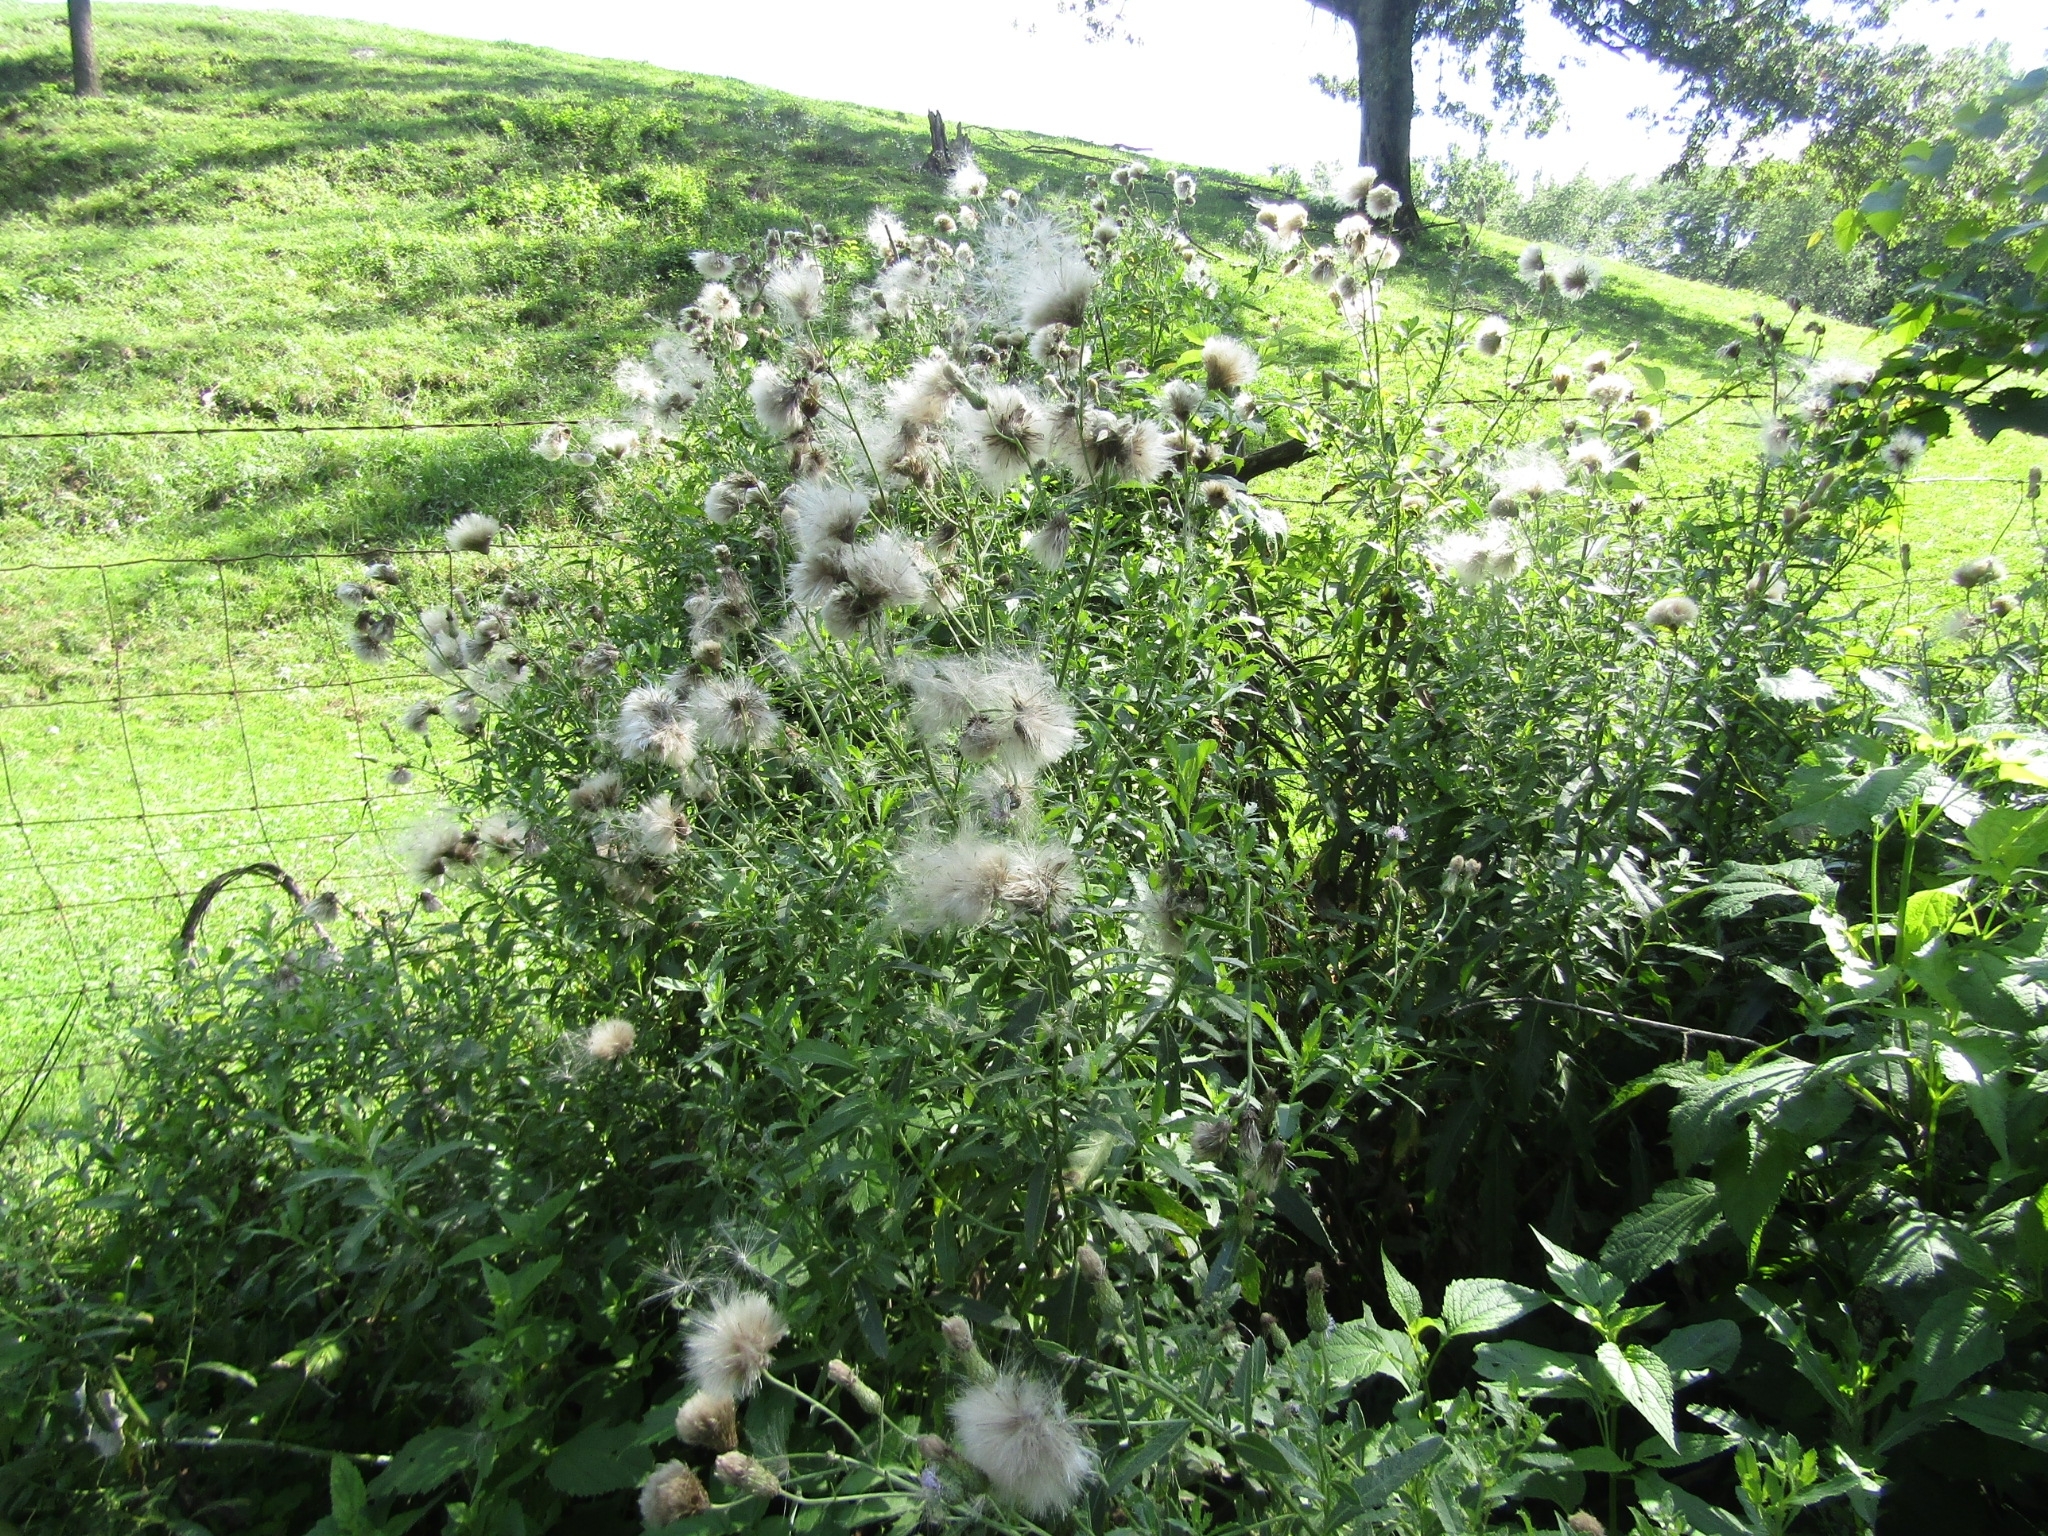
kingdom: Plantae
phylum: Tracheophyta
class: Magnoliopsida
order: Asterales
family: Asteraceae
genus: Cirsium
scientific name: Cirsium arvense
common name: Creeping thistle
